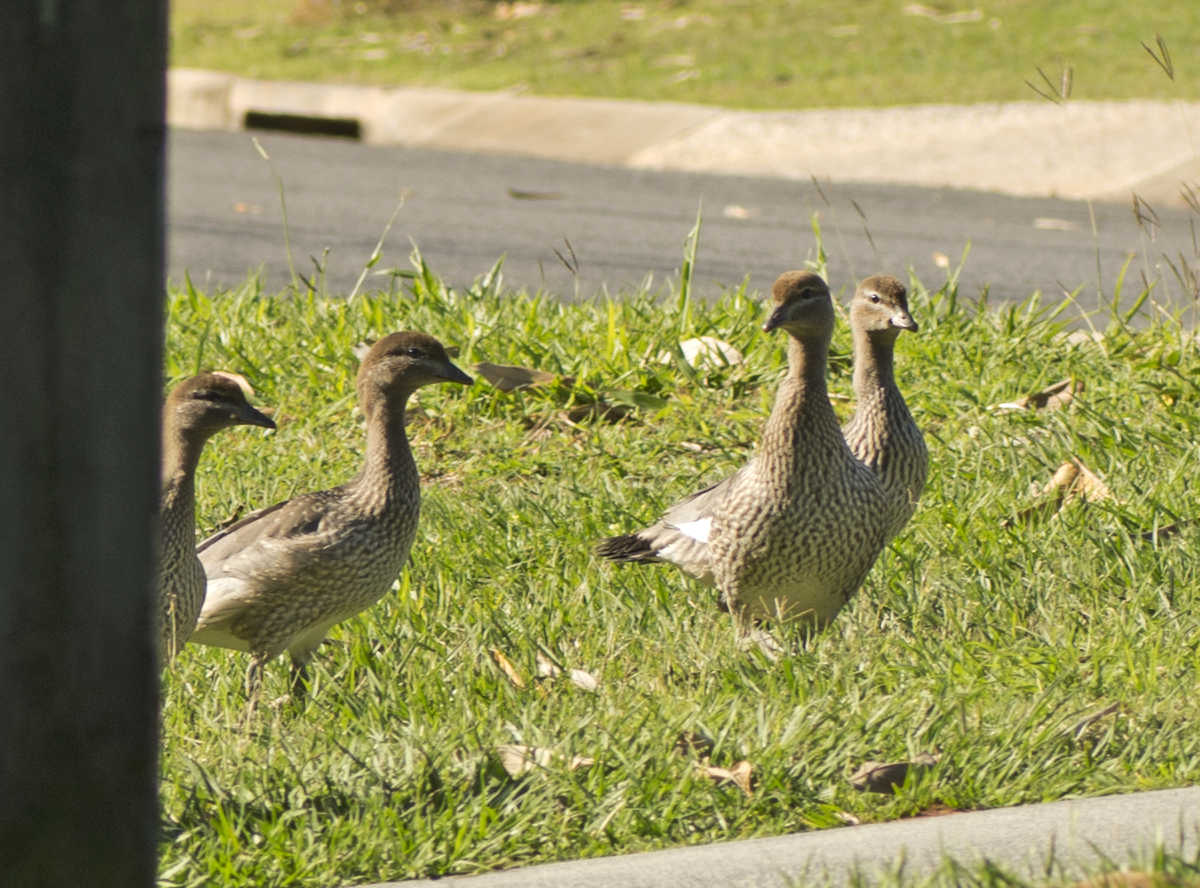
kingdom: Animalia
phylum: Chordata
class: Aves
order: Anseriformes
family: Anatidae
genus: Chenonetta
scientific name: Chenonetta jubata
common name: Maned duck
